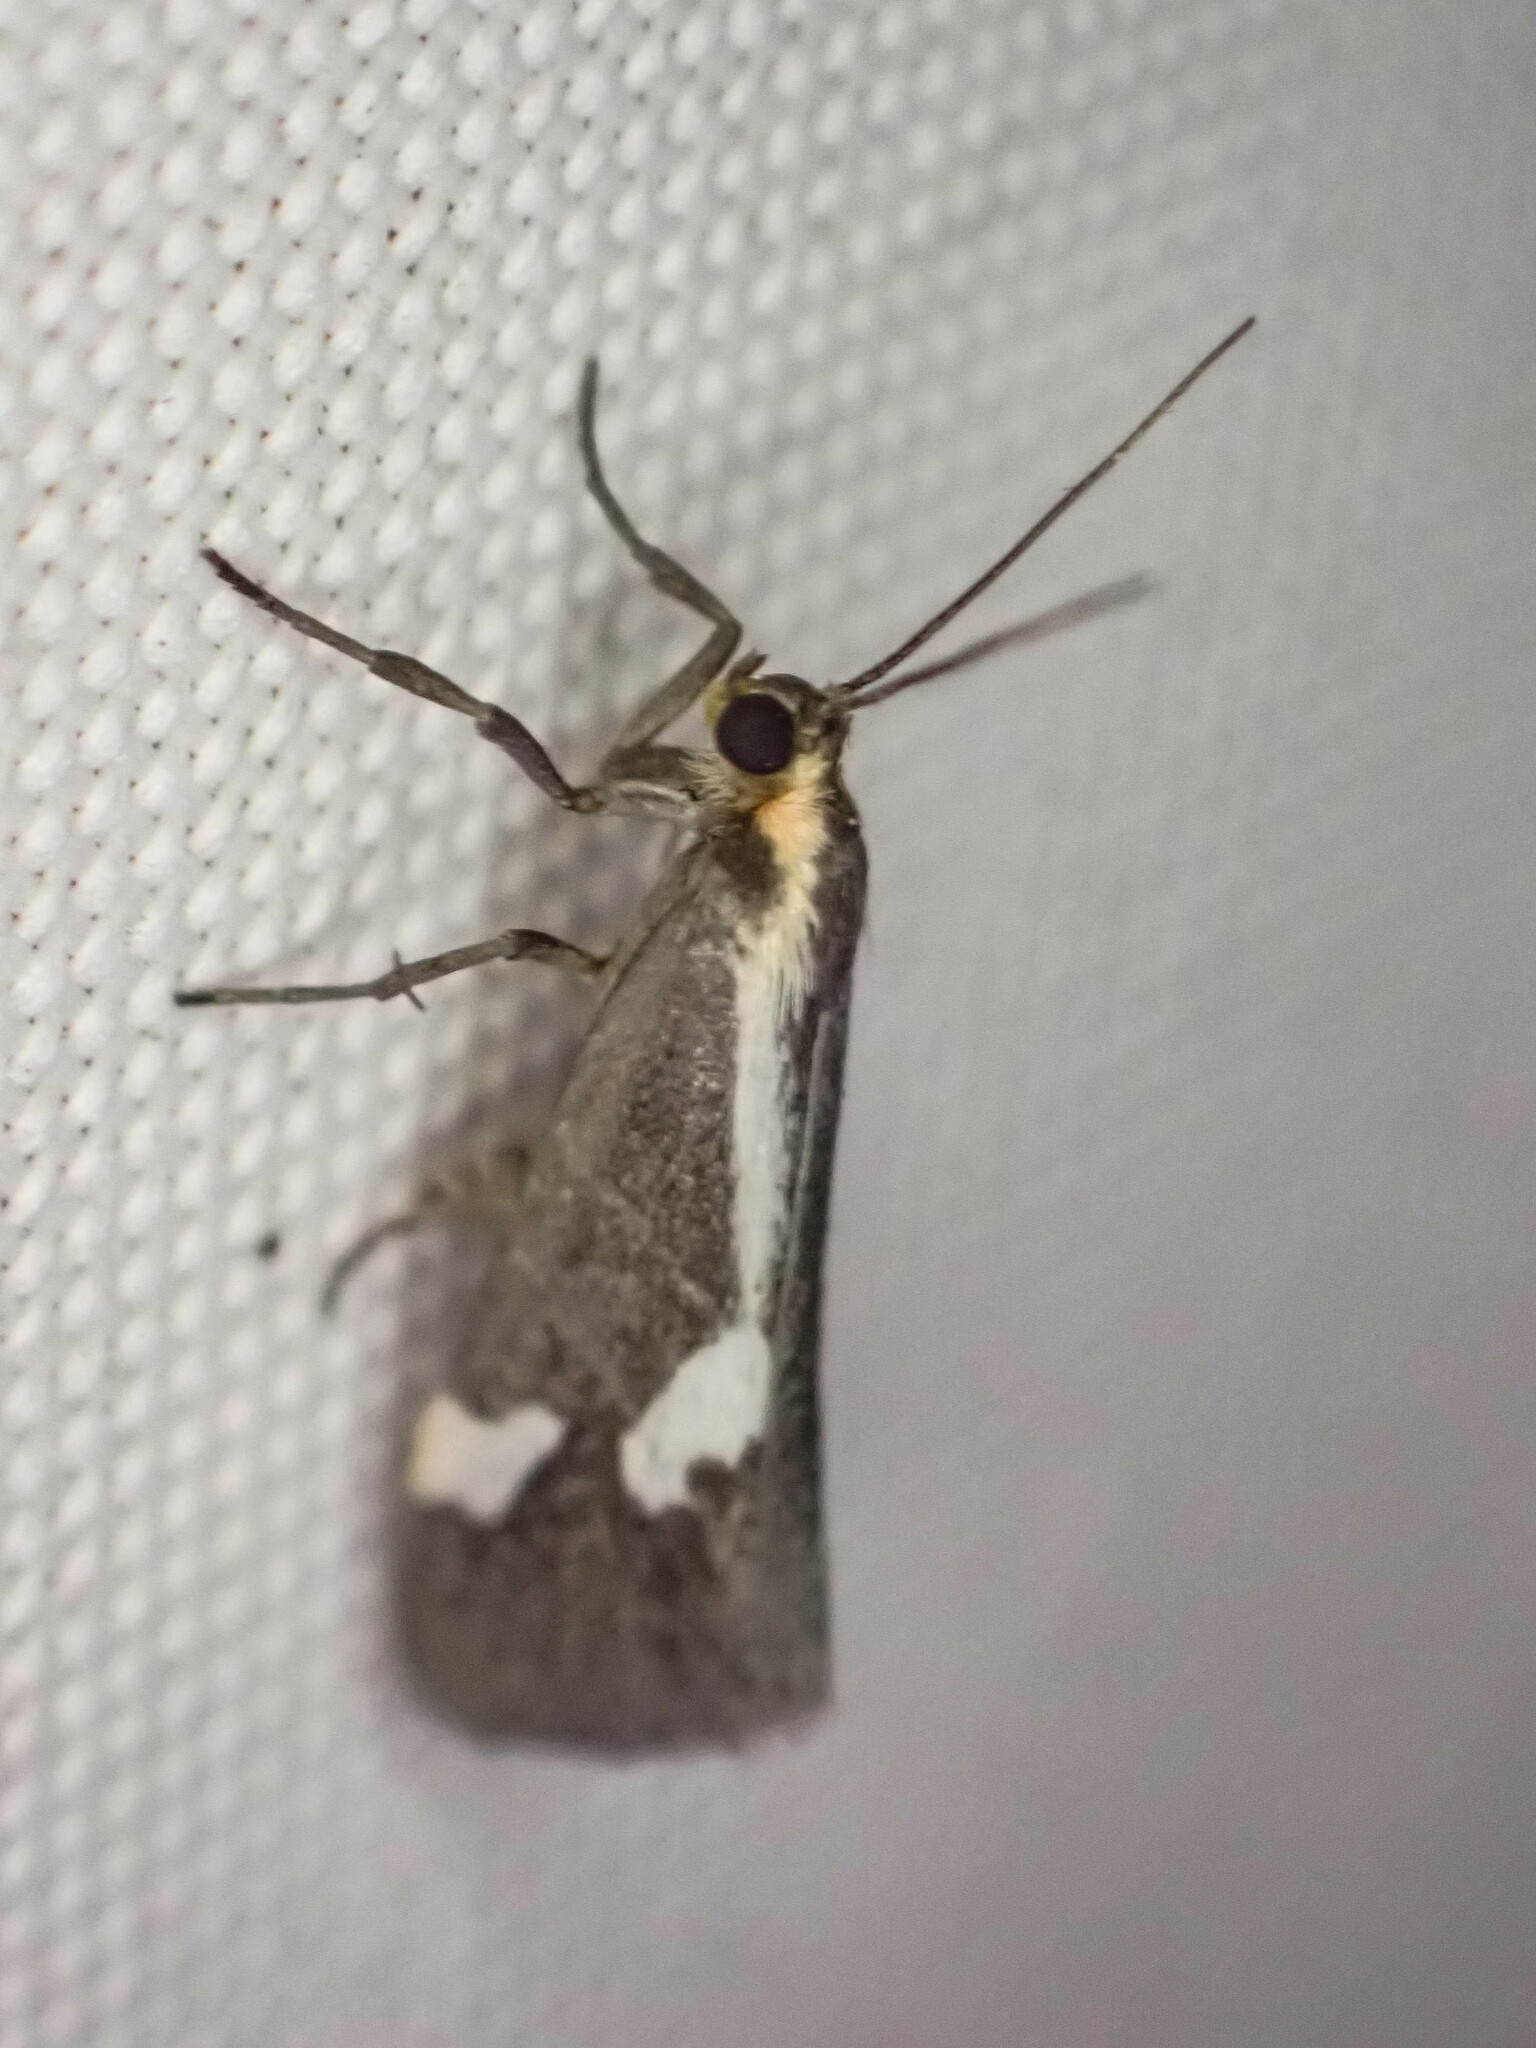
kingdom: Animalia
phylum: Arthropoda
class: Insecta
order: Lepidoptera
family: Erebidae
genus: Cisthene
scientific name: Cisthene liberomacula
